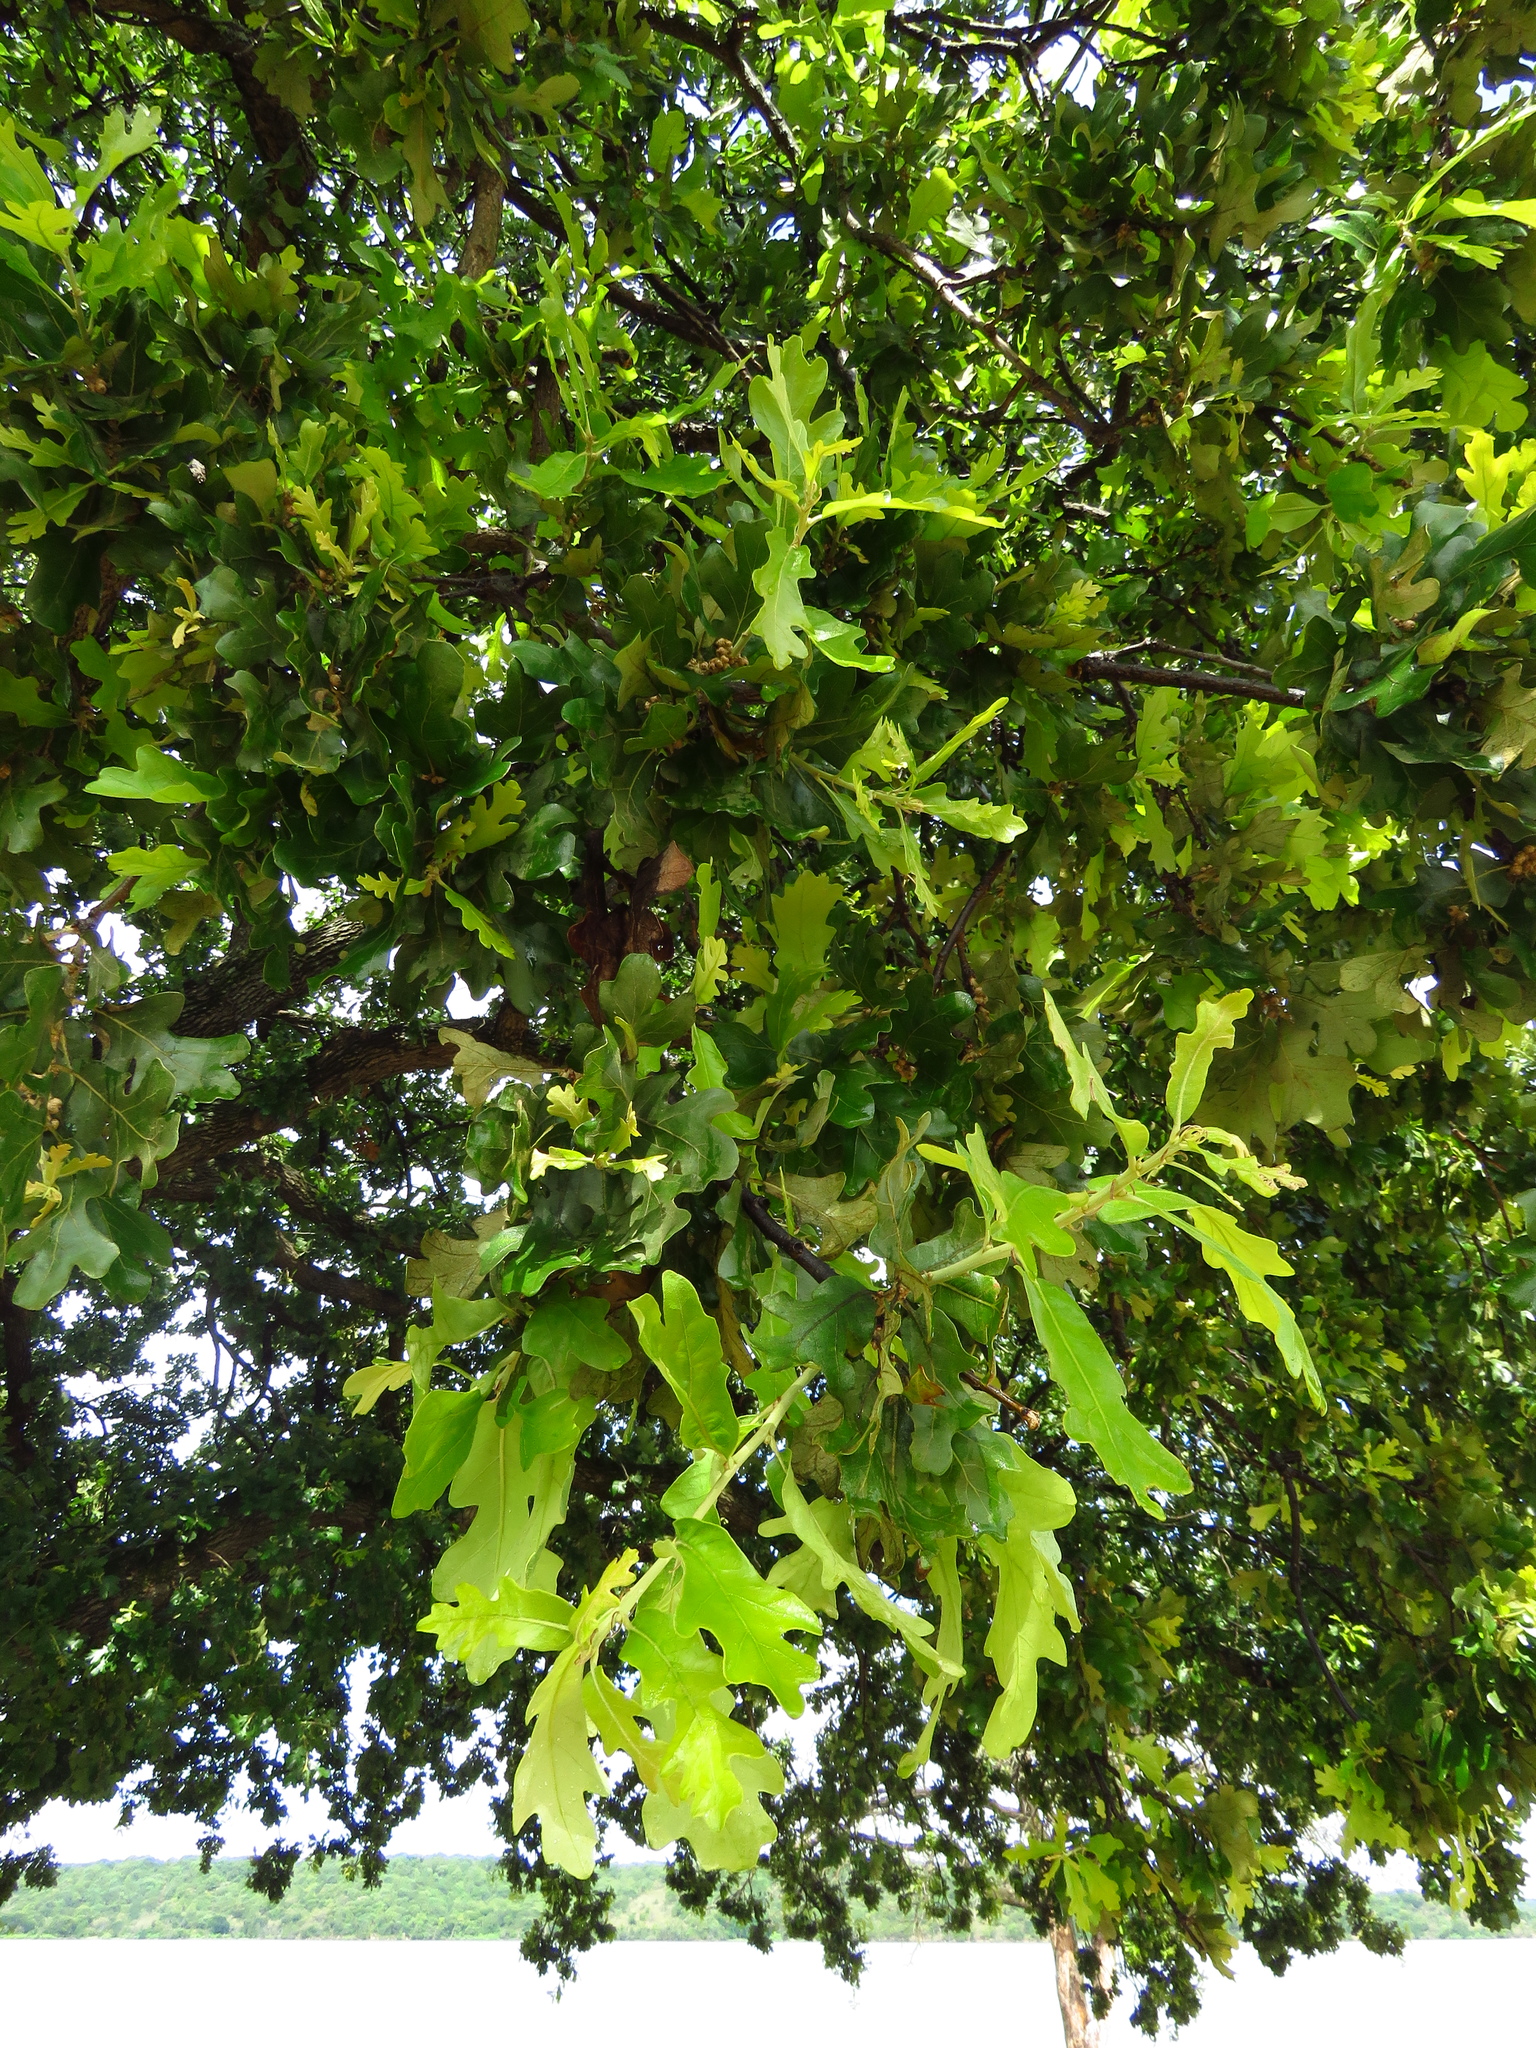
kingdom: Plantae
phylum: Tracheophyta
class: Magnoliopsida
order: Fagales
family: Fagaceae
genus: Quercus
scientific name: Quercus stellata
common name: Post oak
